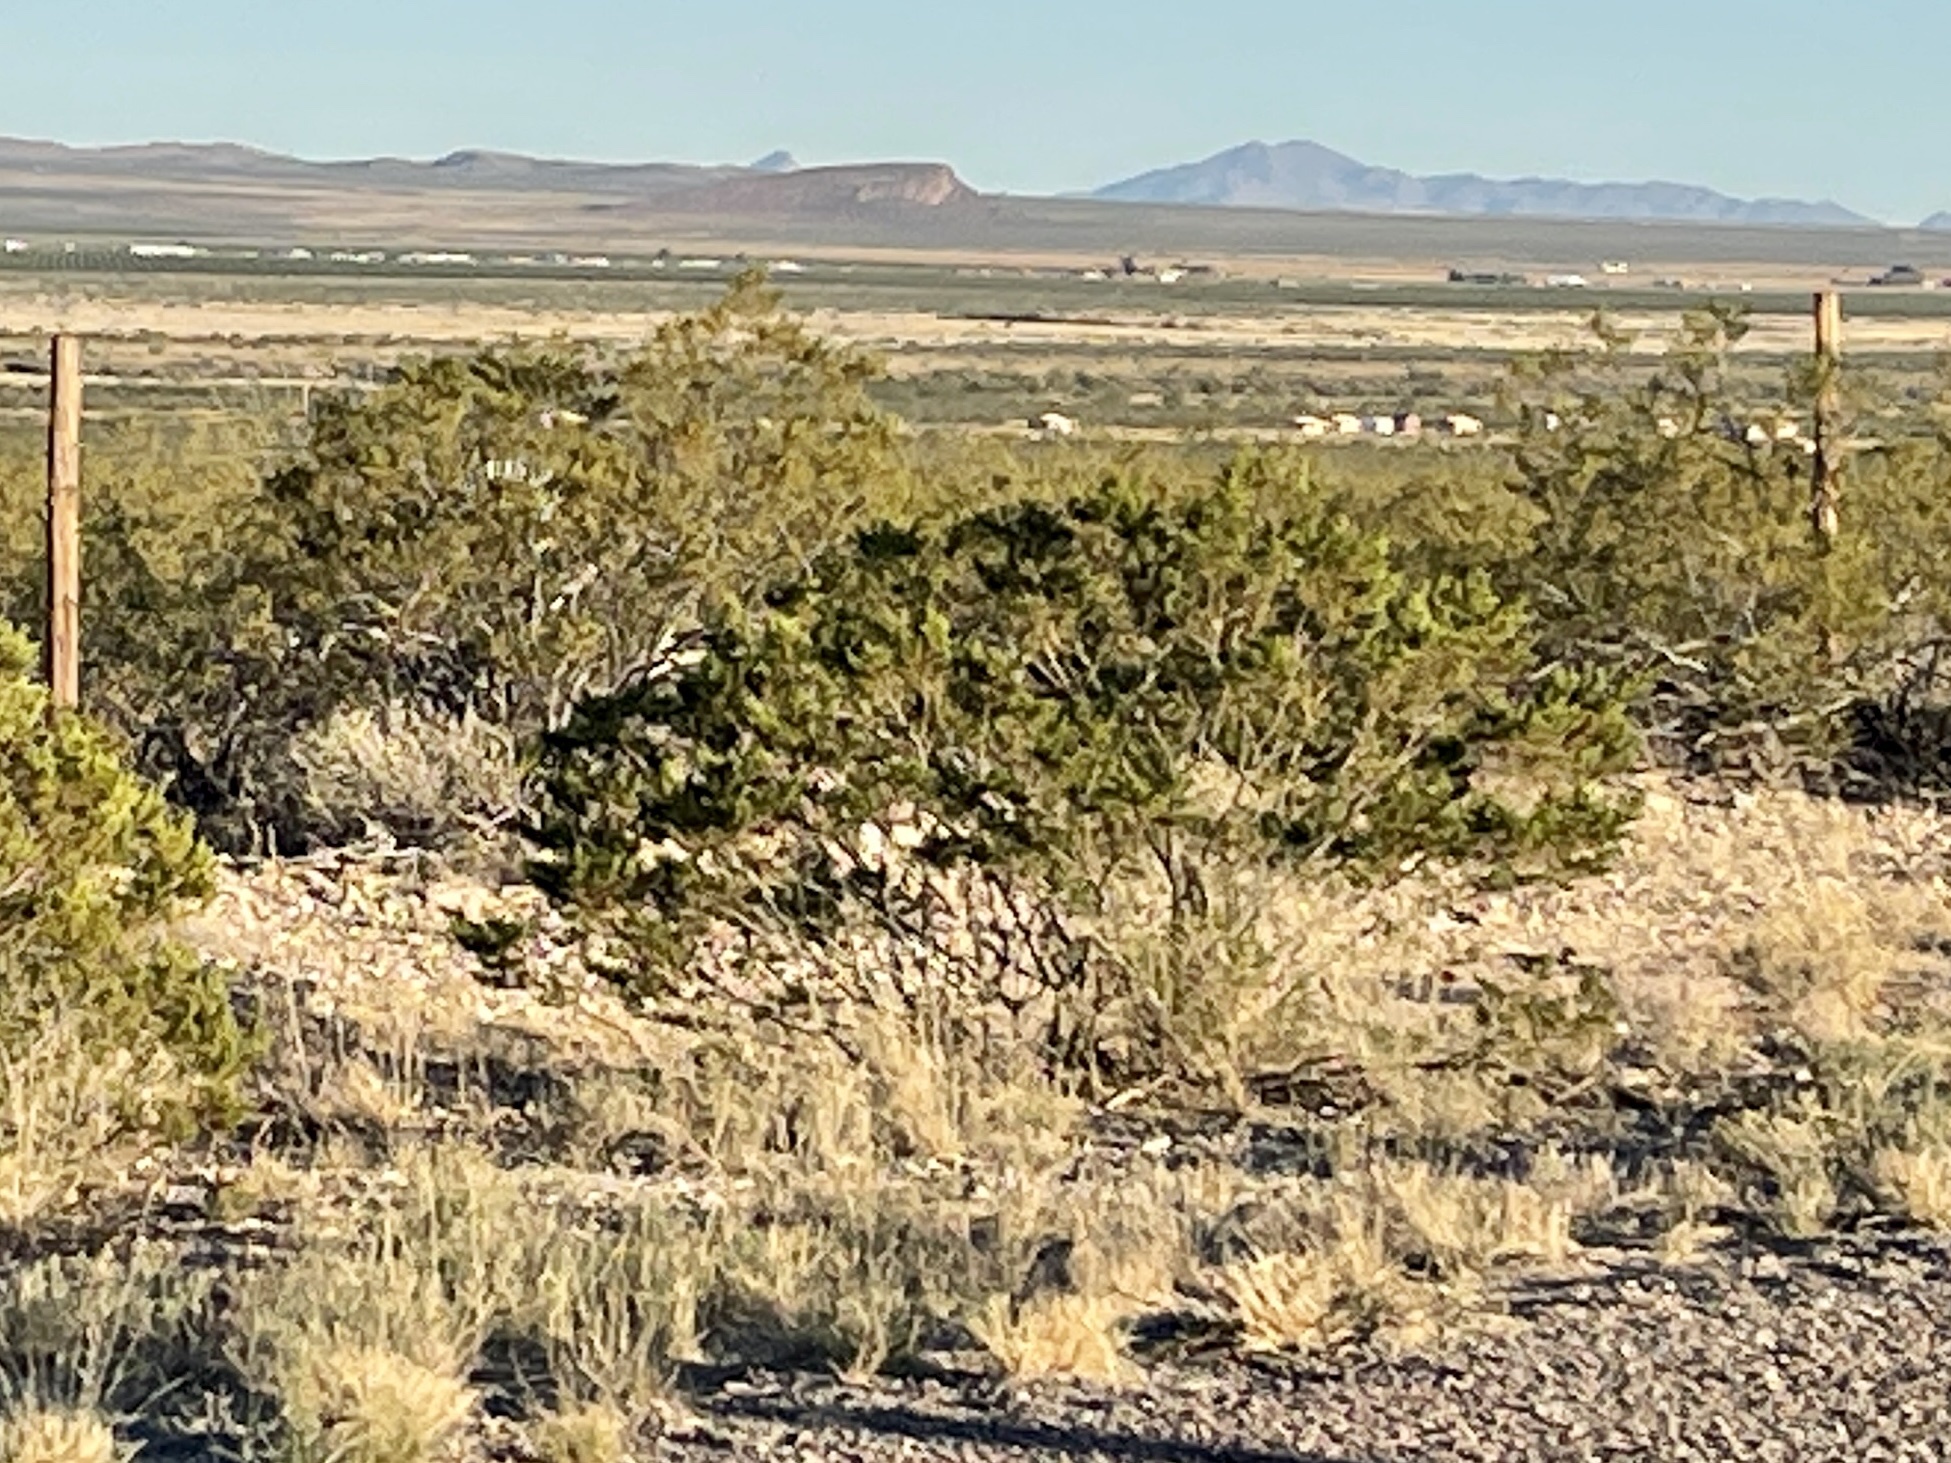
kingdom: Plantae
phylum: Tracheophyta
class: Magnoliopsida
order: Zygophyllales
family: Zygophyllaceae
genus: Larrea
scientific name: Larrea tridentata
